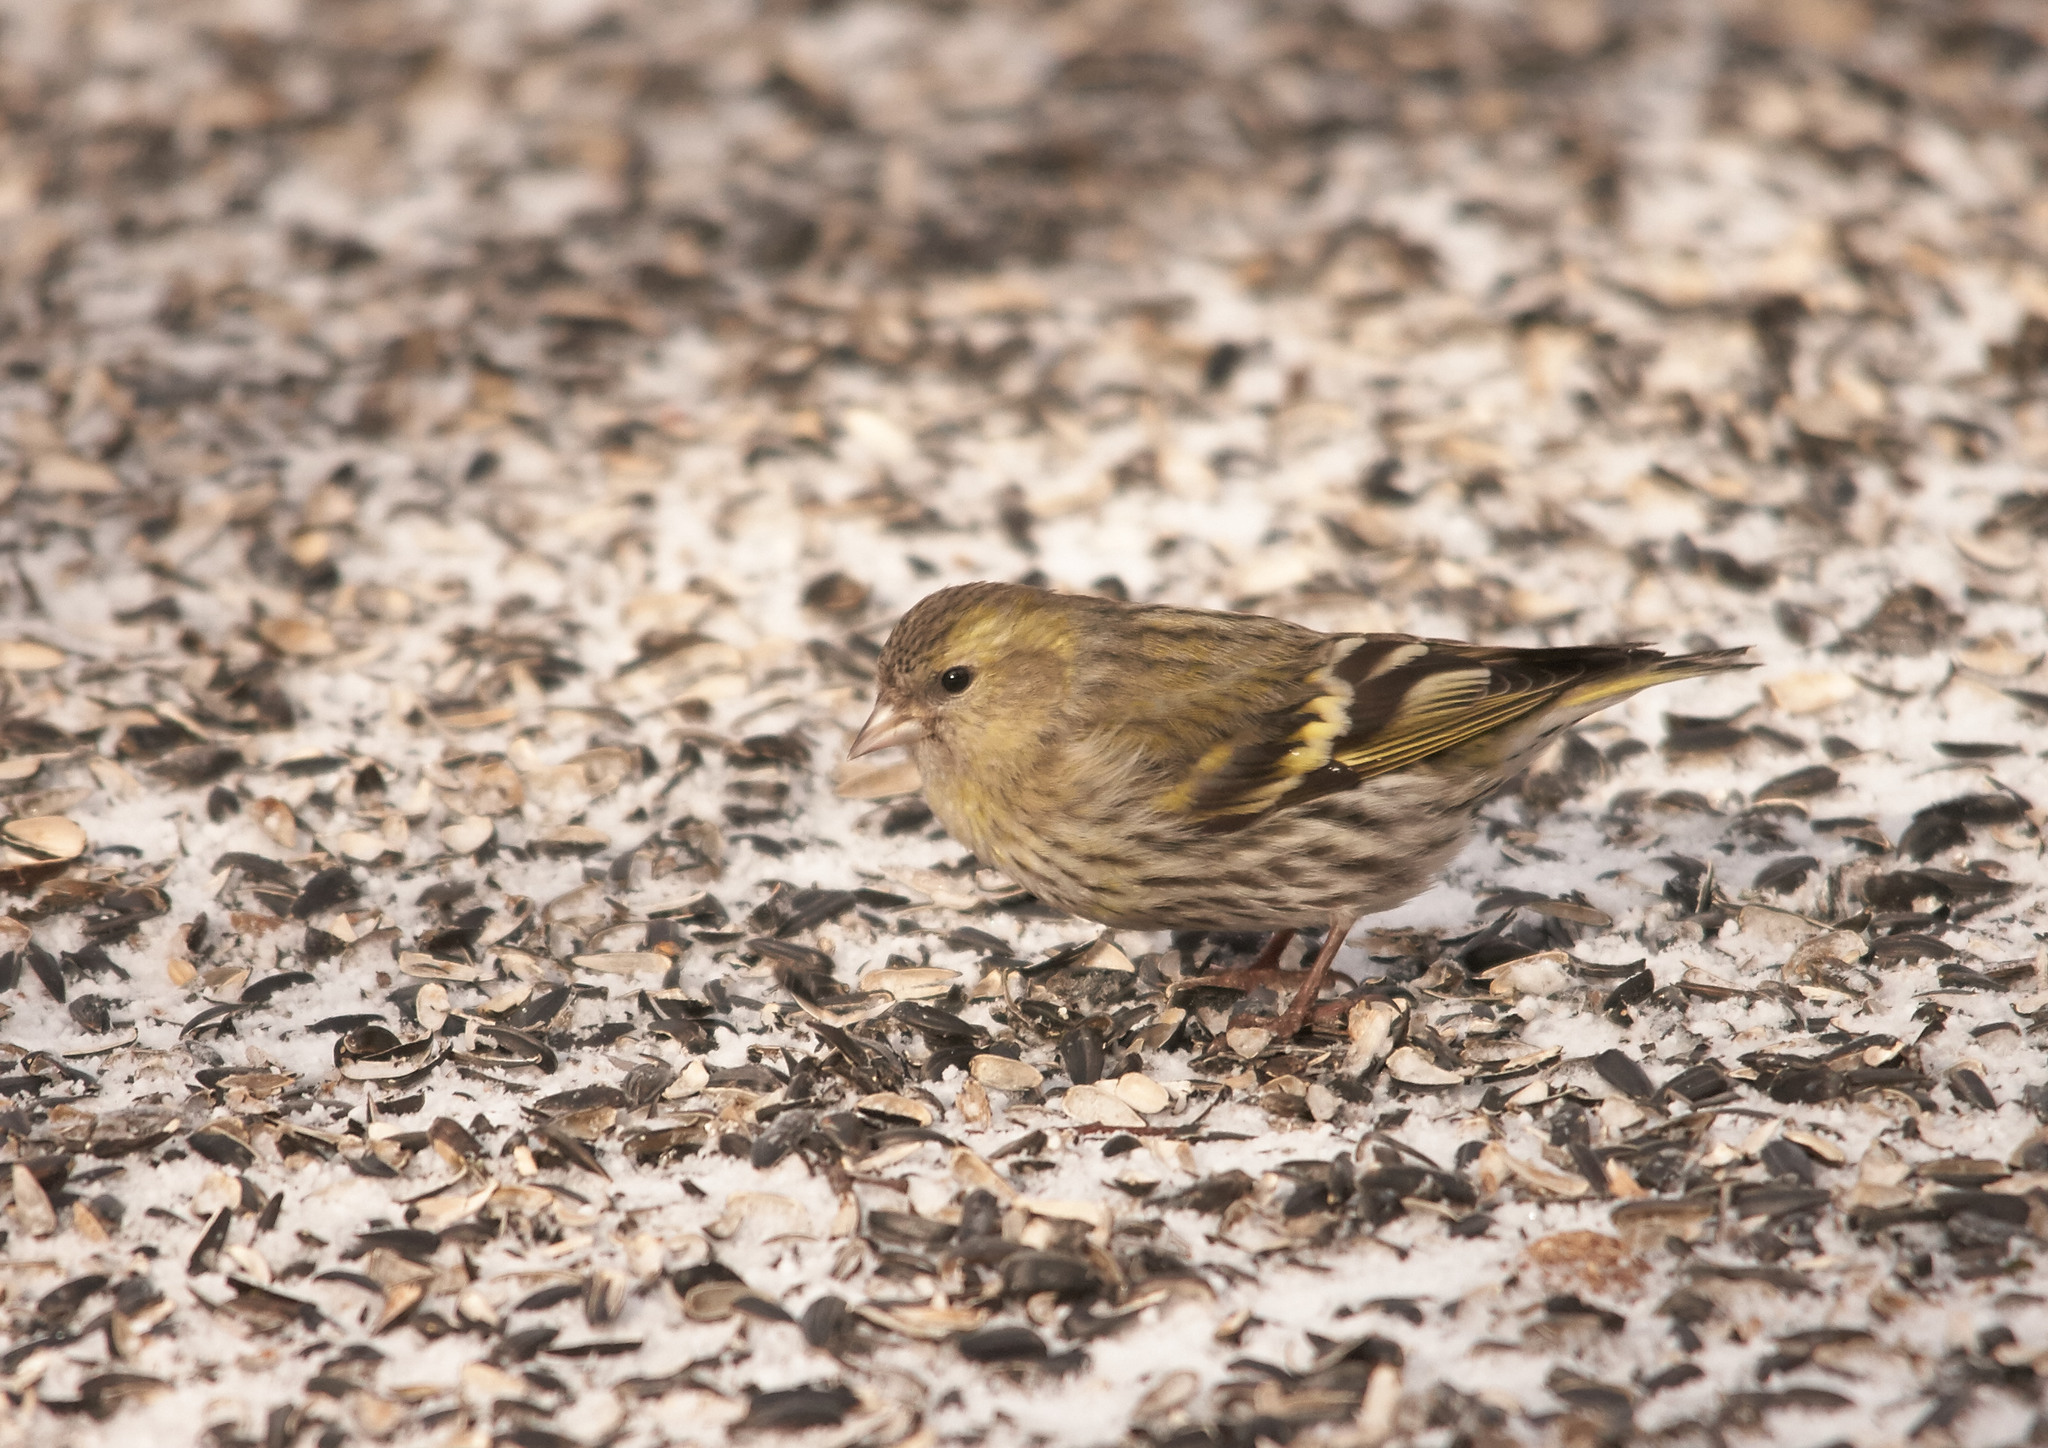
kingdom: Animalia
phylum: Chordata
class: Aves
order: Passeriformes
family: Fringillidae
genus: Spinus
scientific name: Spinus spinus
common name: Eurasian siskin
